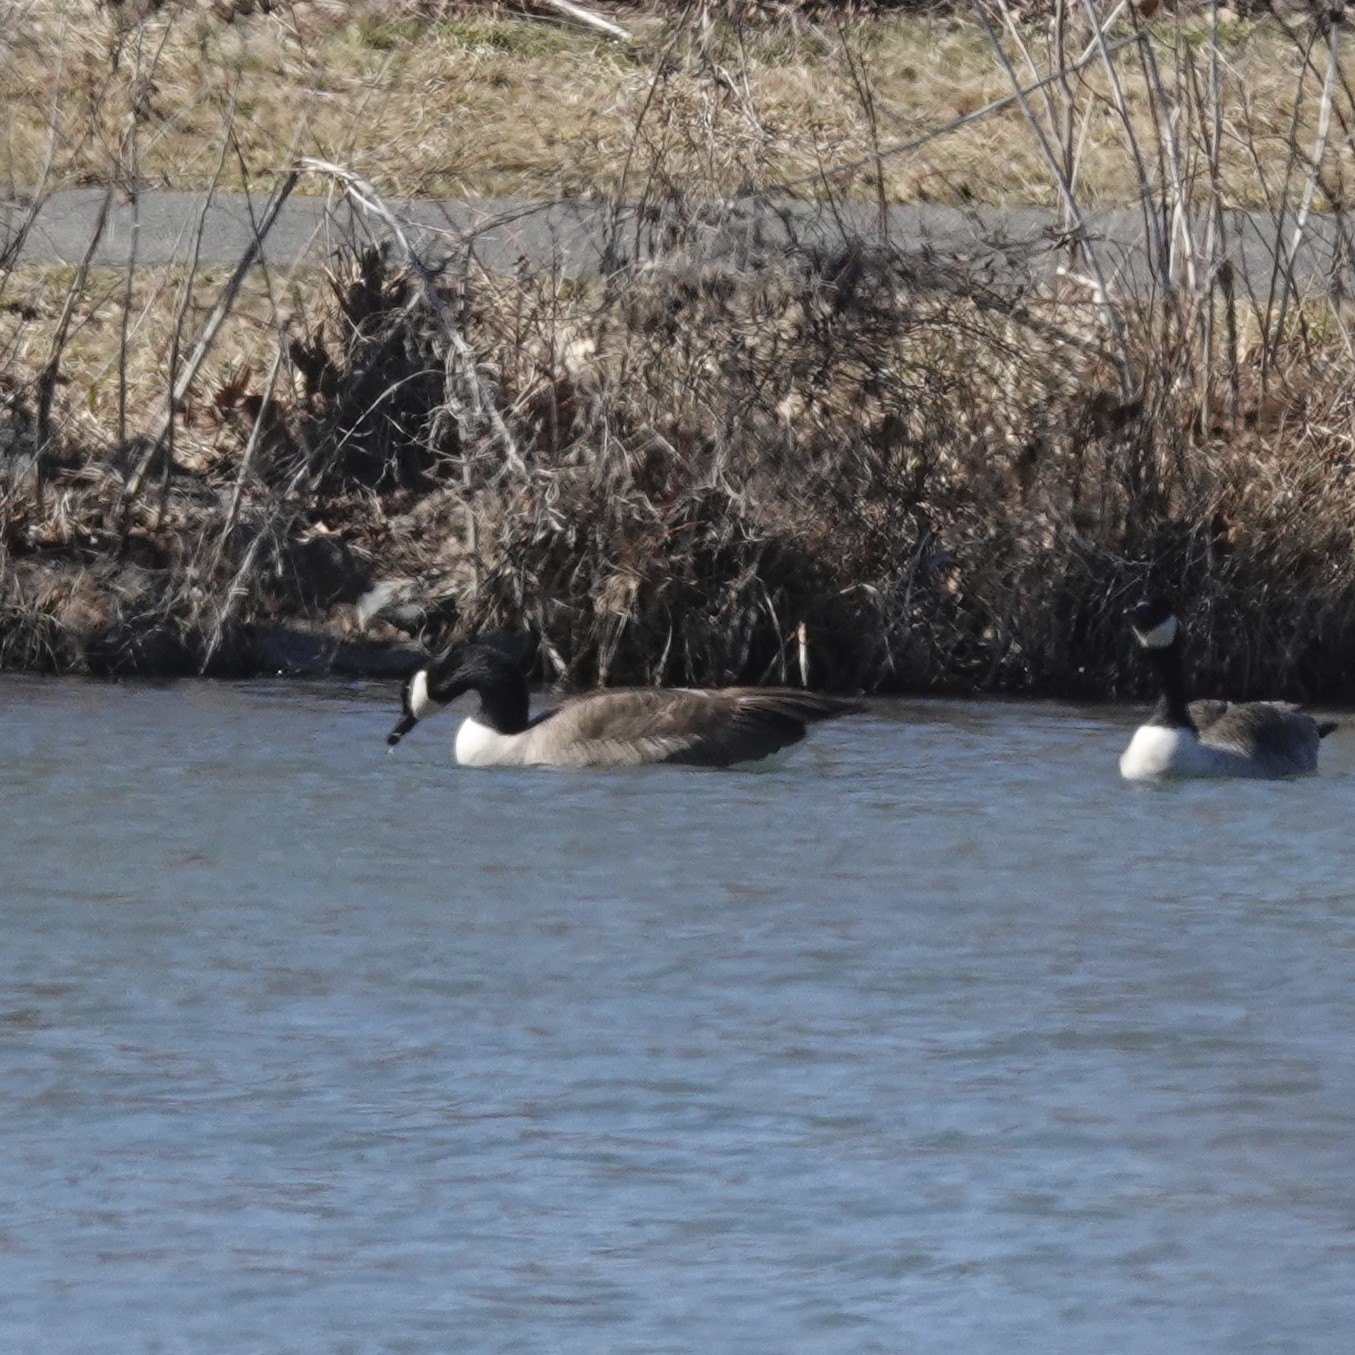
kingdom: Animalia
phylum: Chordata
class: Aves
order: Anseriformes
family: Anatidae
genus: Branta
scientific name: Branta canadensis
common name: Canada goose
